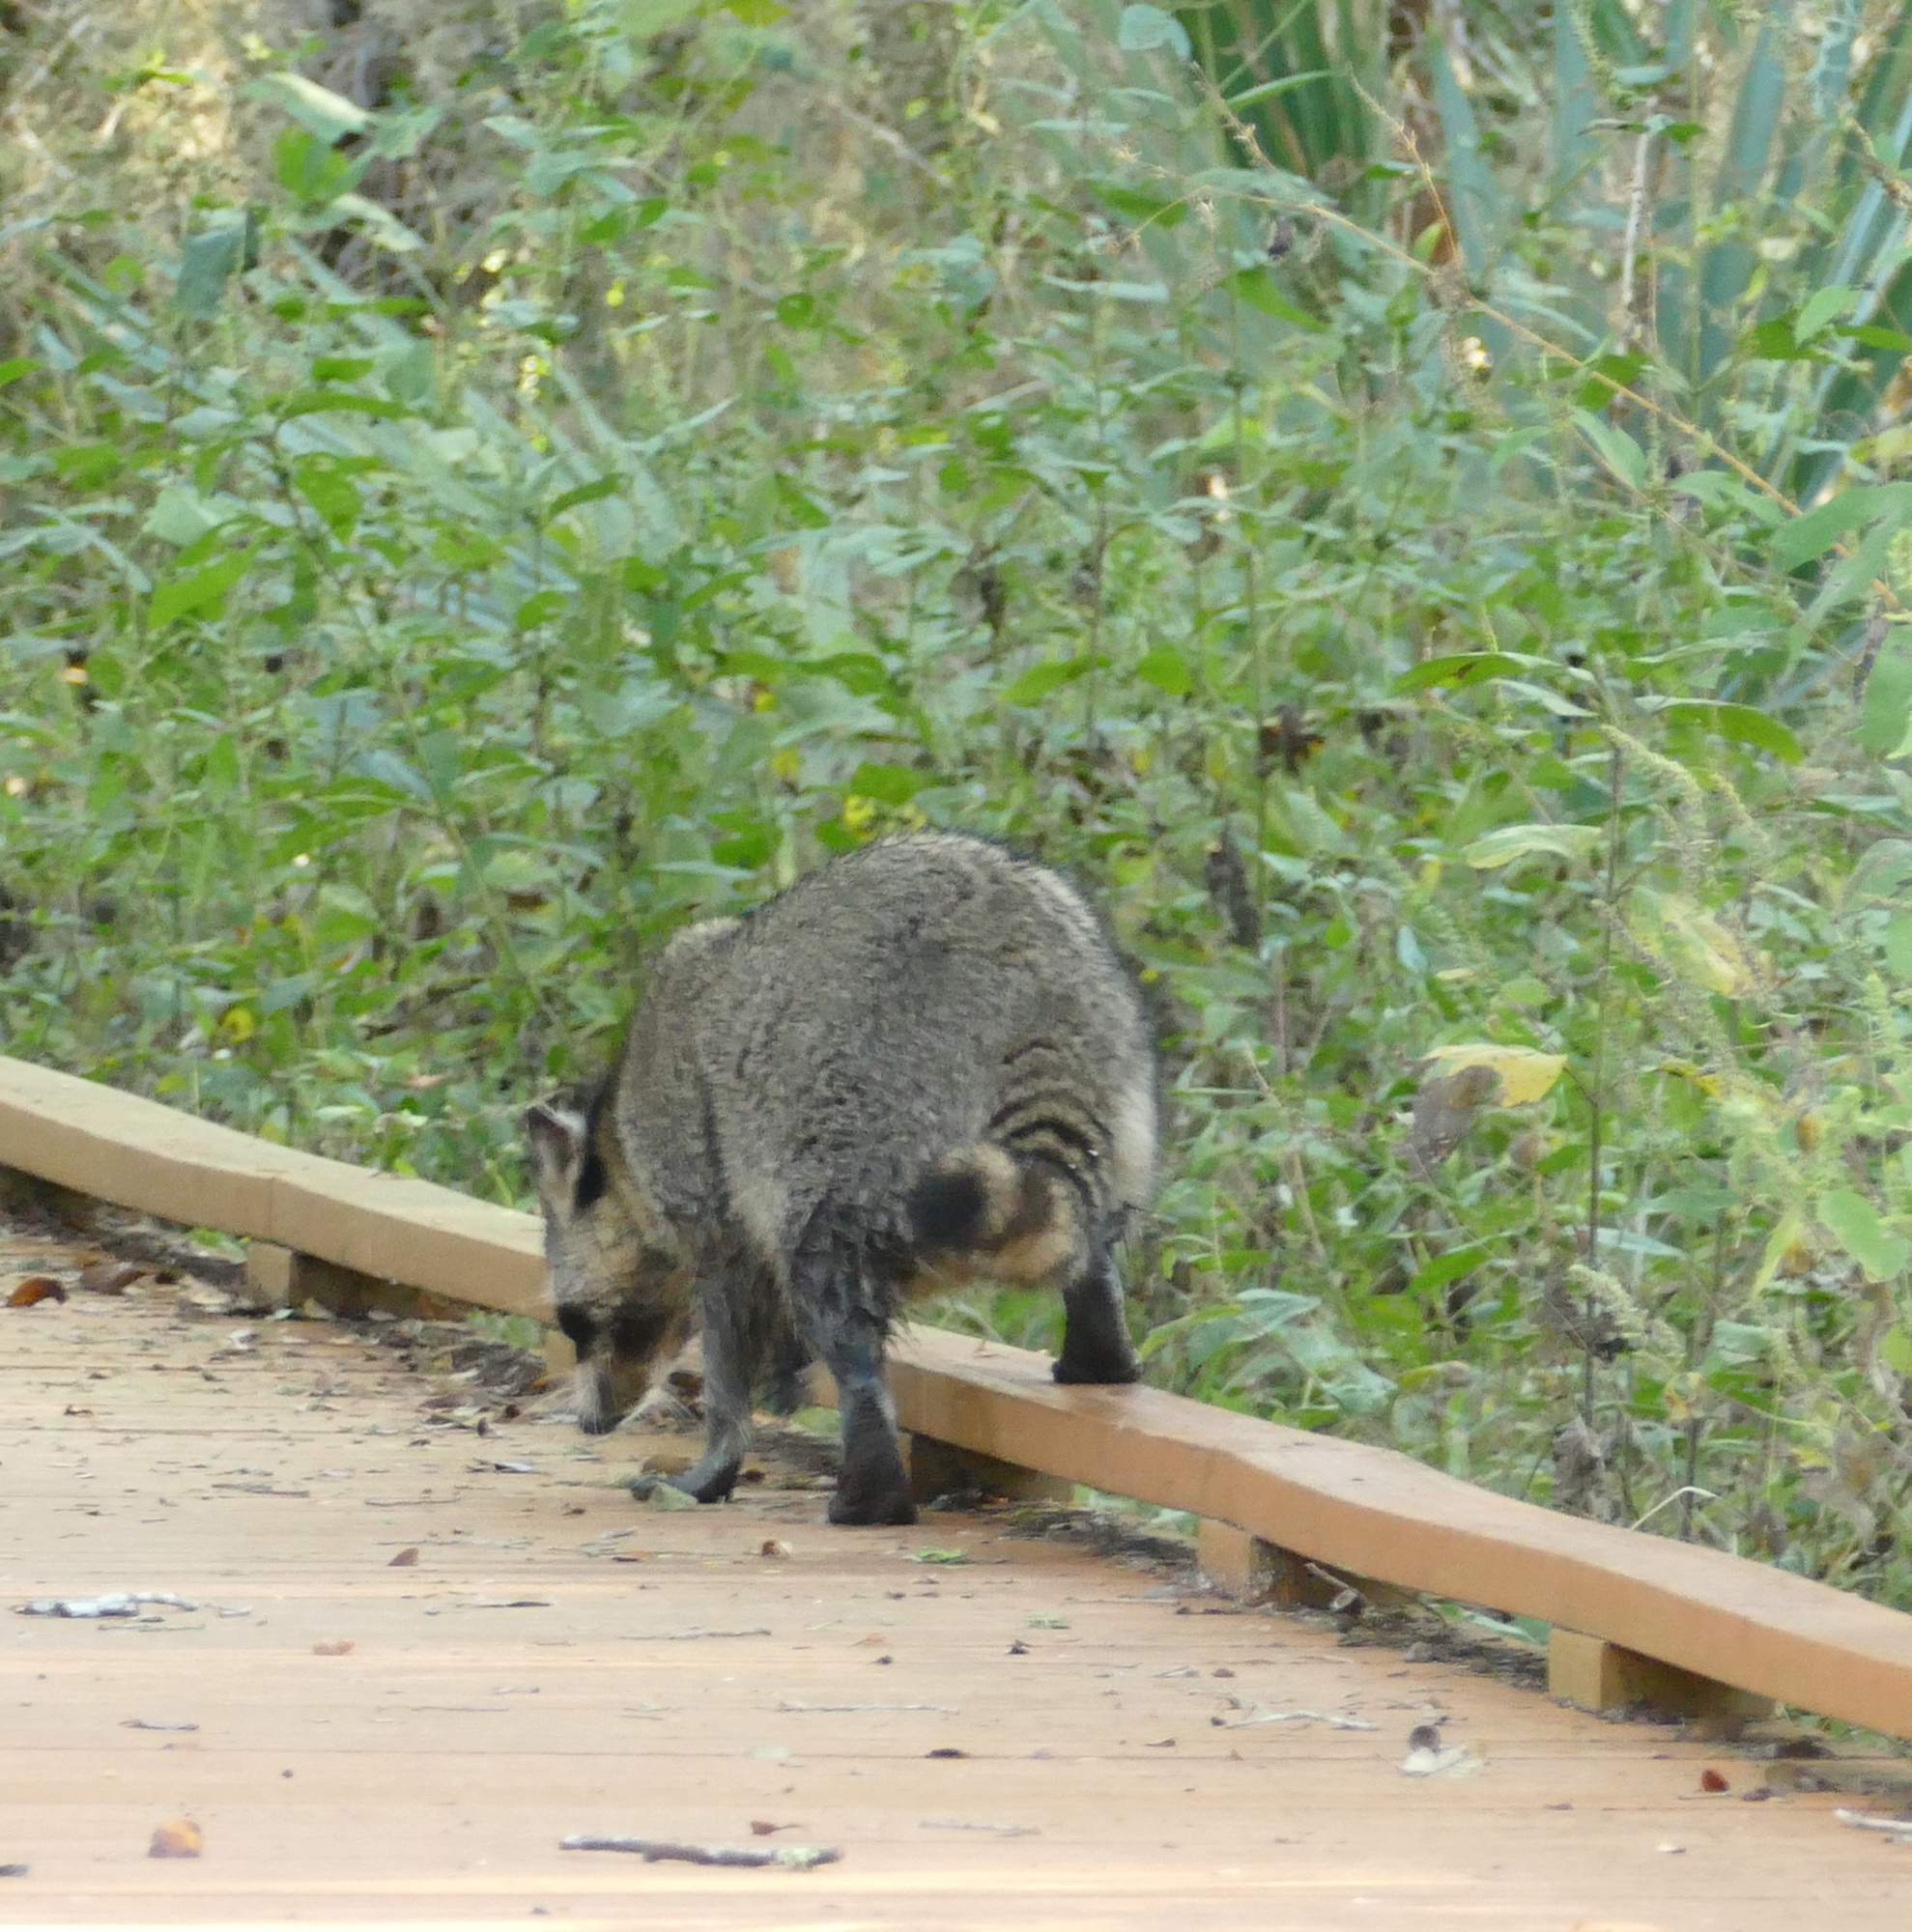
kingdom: Animalia
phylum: Chordata
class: Mammalia
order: Carnivora
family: Procyonidae
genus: Procyon
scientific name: Procyon lotor
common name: Raccoon
